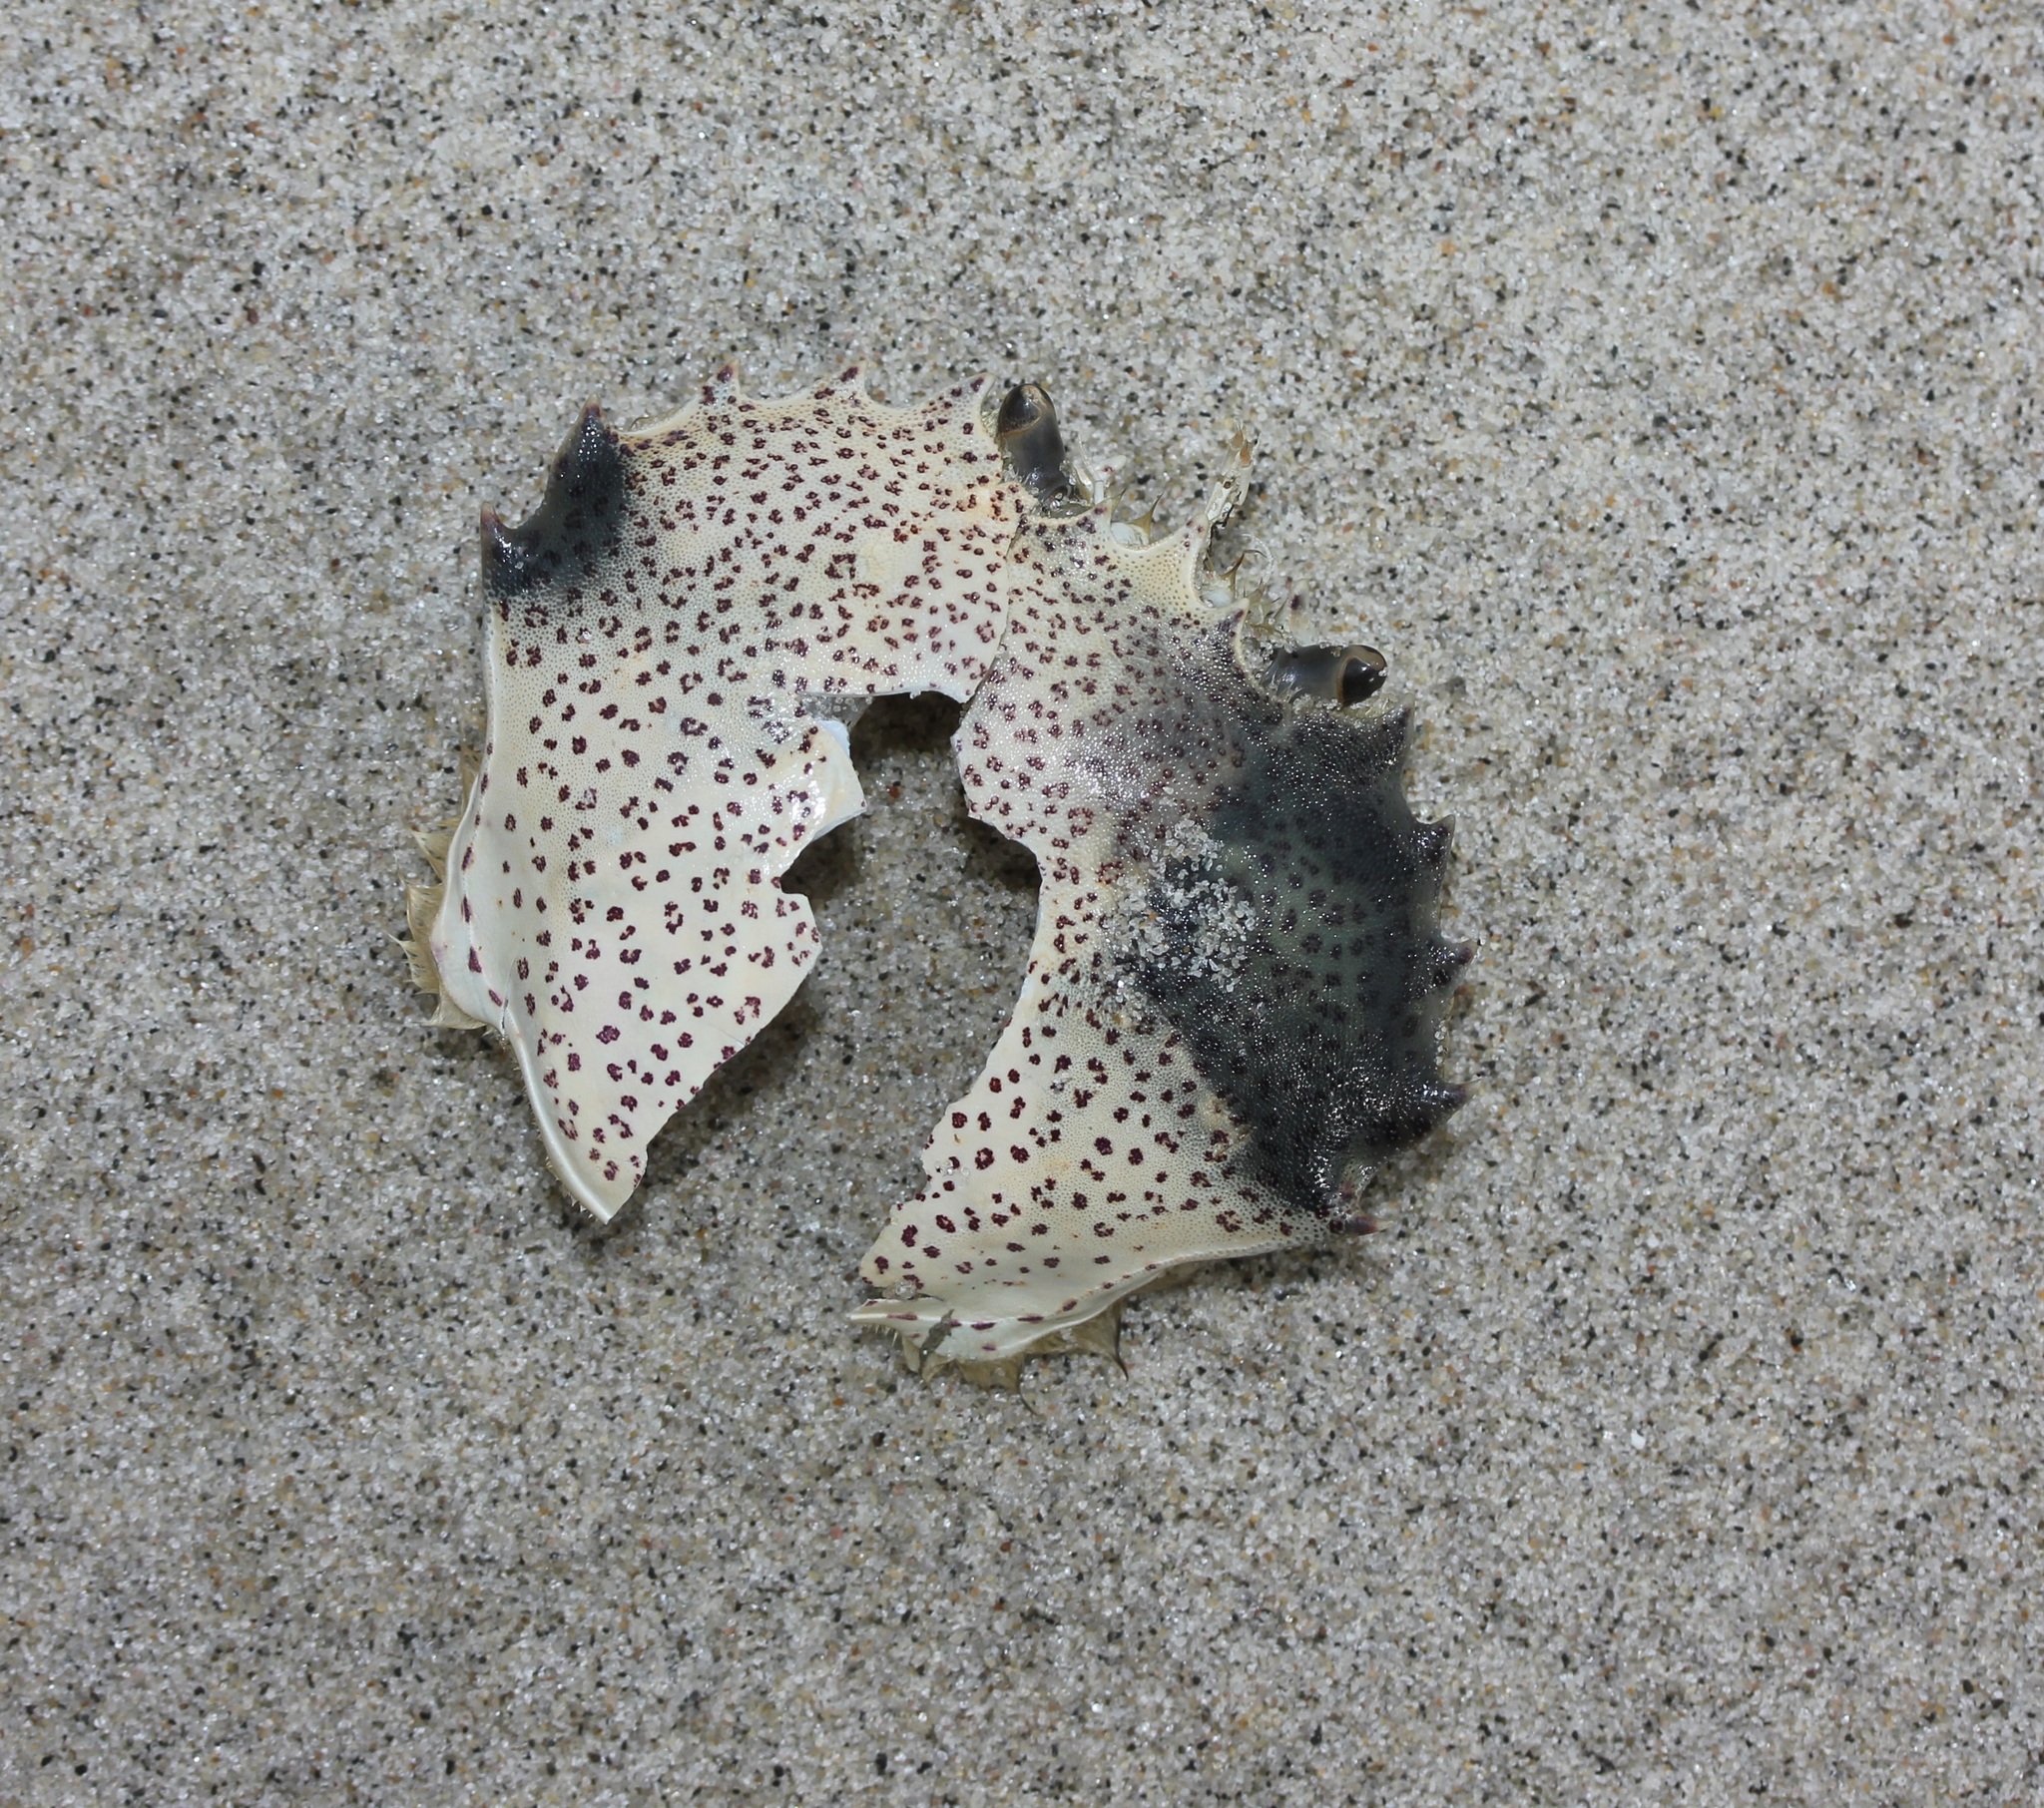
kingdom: Animalia
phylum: Arthropoda
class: Malacostraca
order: Decapoda
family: Ovalipidae
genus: Ovalipes
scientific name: Ovalipes ocellatus
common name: Lady crab
